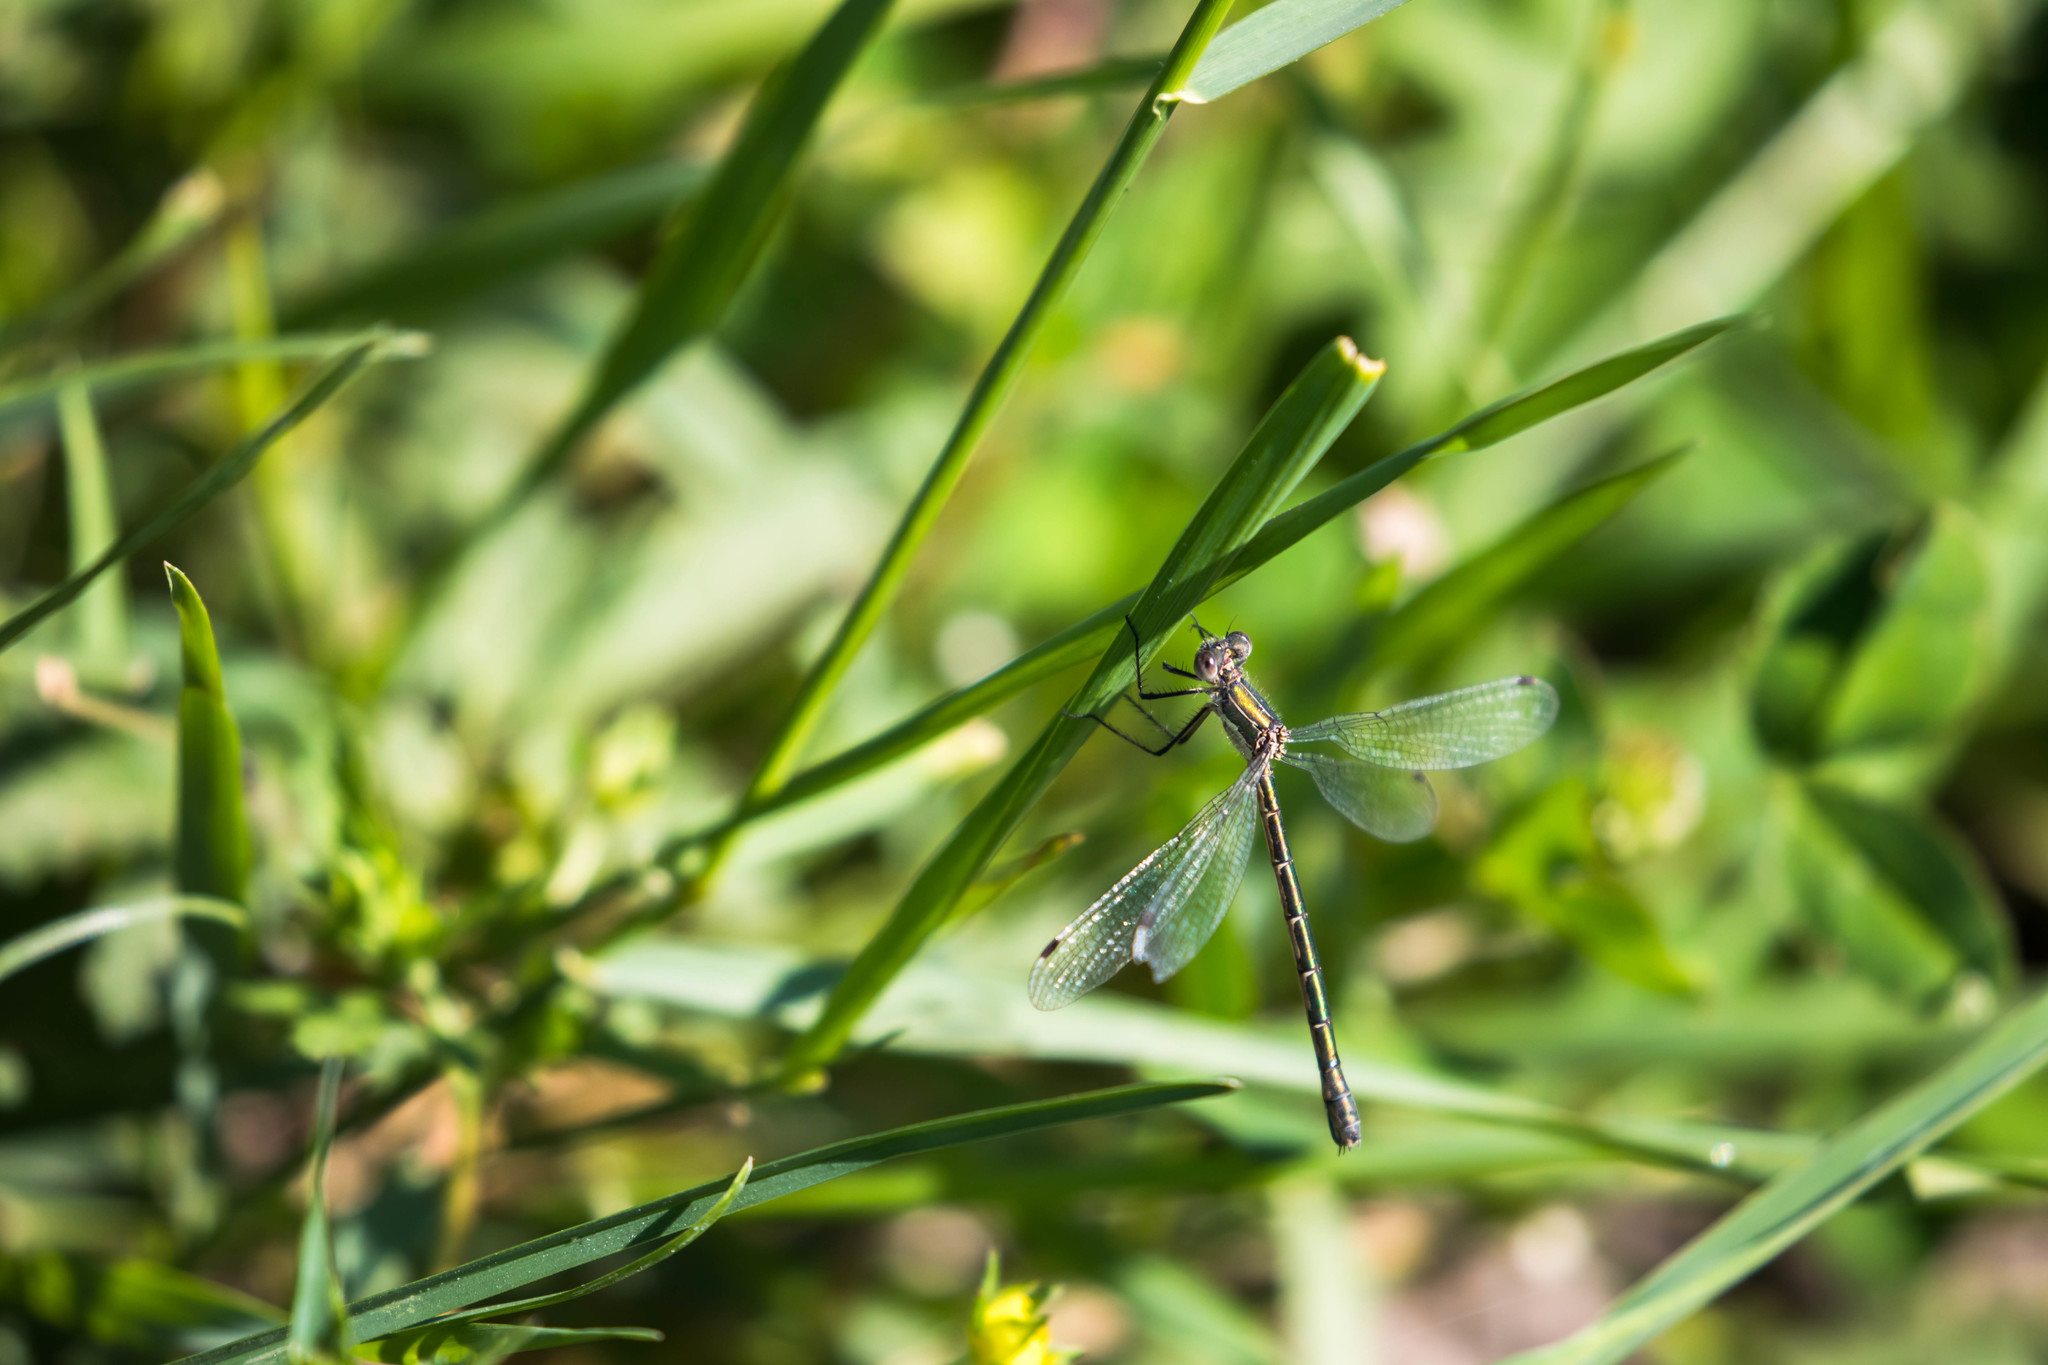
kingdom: Animalia
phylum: Arthropoda
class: Insecta
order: Odonata
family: Lestidae
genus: Lestes
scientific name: Lestes dryas
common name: Scarce emerald damselfly
